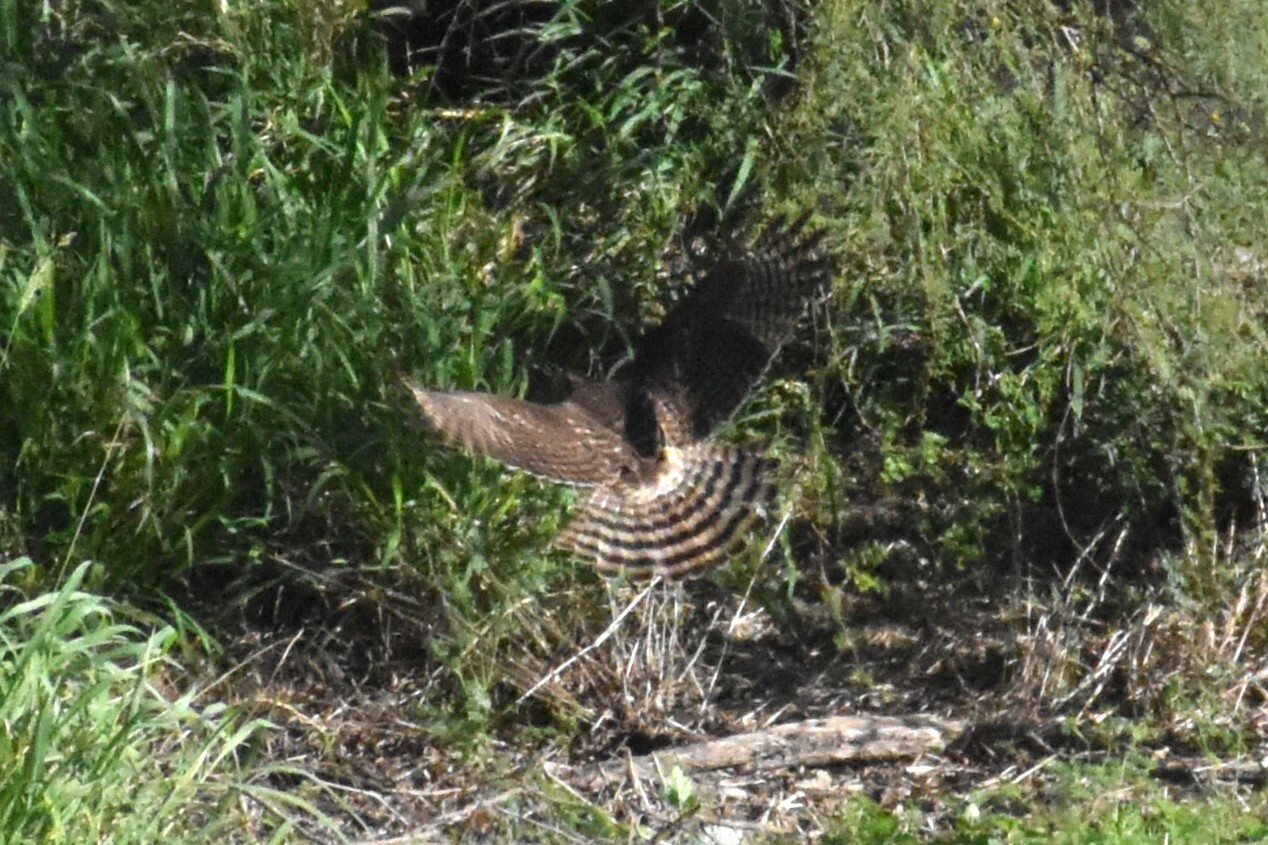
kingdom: Animalia
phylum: Chordata
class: Aves
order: Accipitriformes
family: Accipitridae
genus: Rupornis
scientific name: Rupornis magnirostris
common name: Roadside hawk
